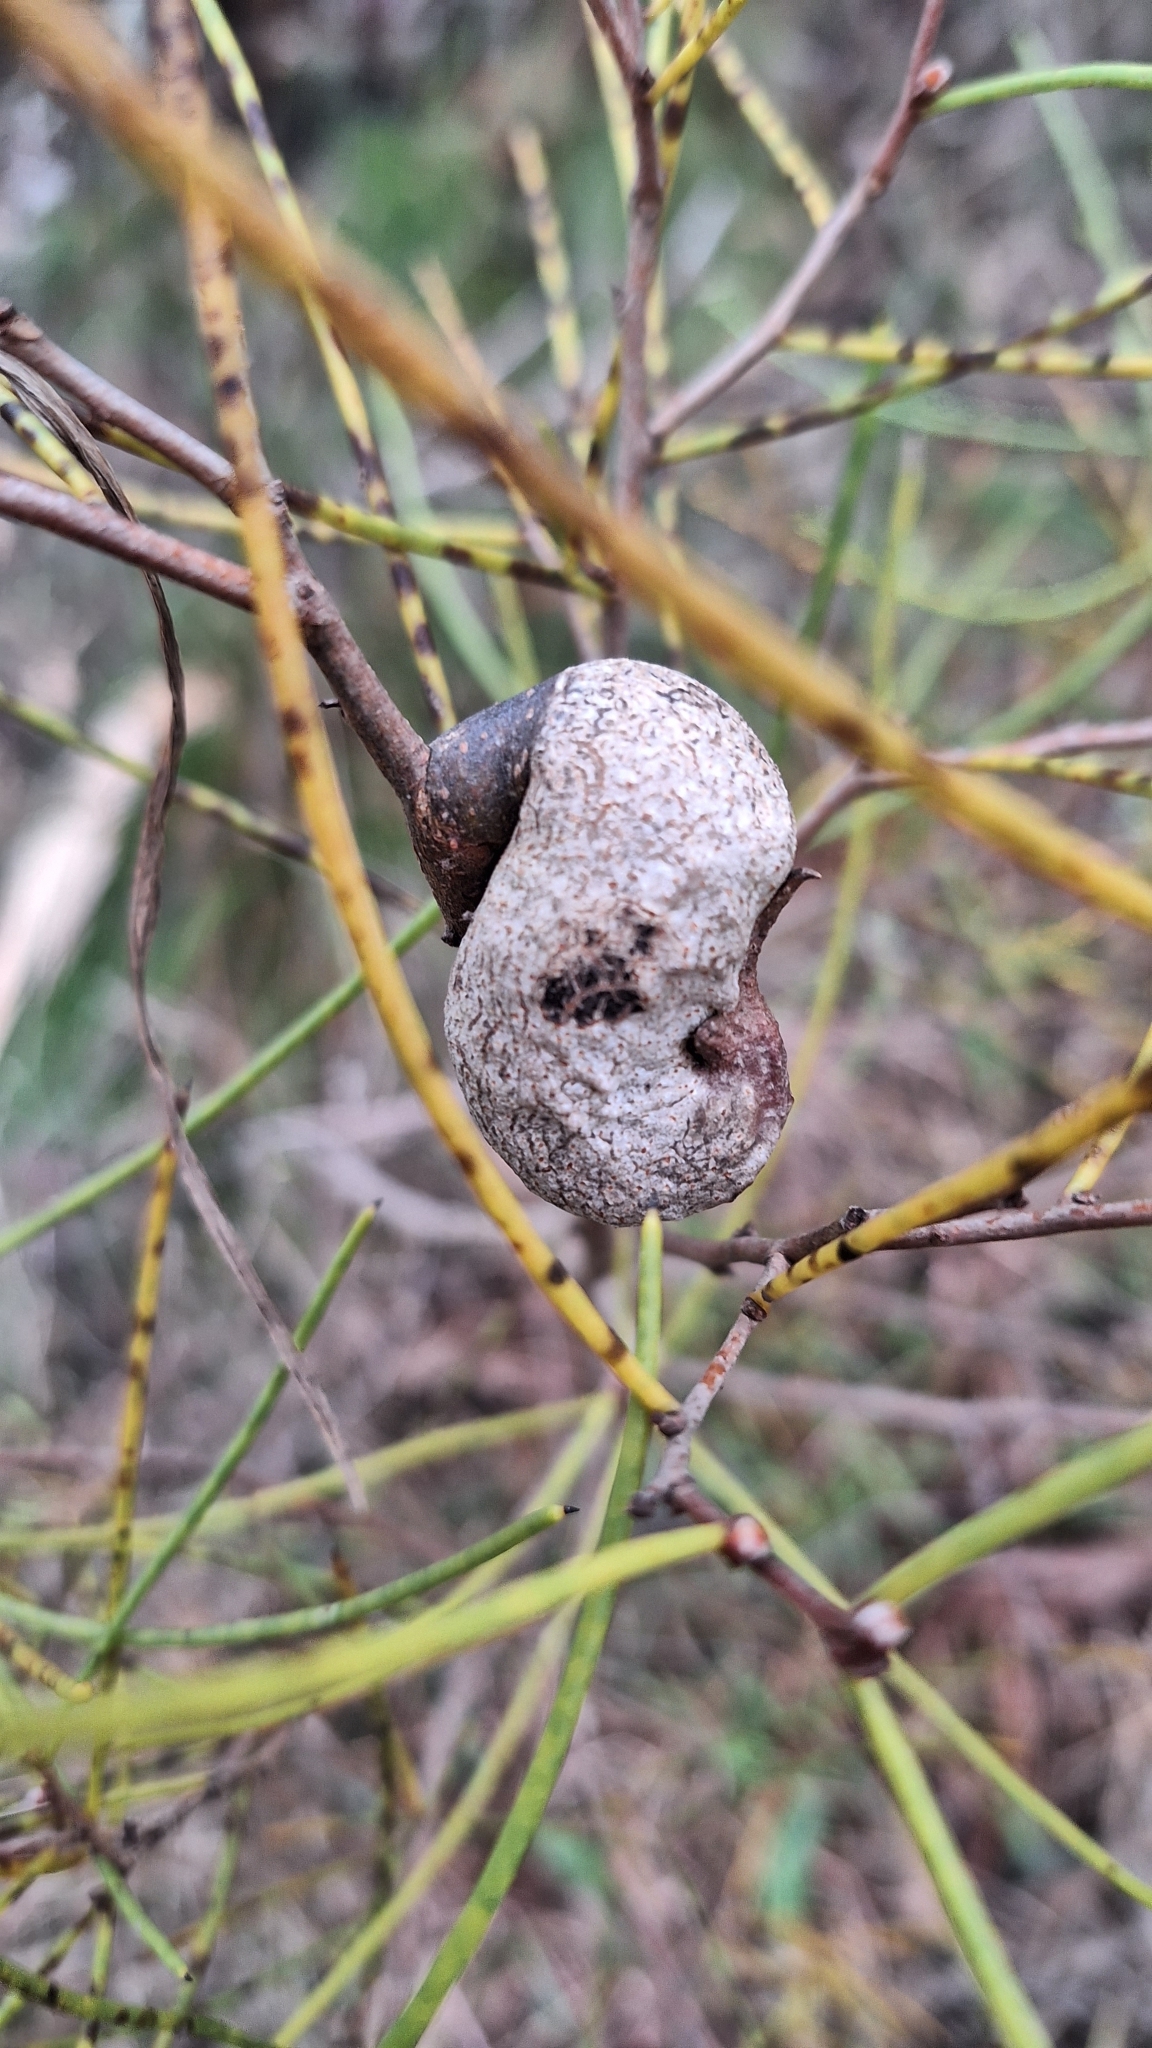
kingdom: Plantae
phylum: Tracheophyta
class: Magnoliopsida
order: Proteales
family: Proteaceae
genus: Hakea
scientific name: Hakea rostrata
